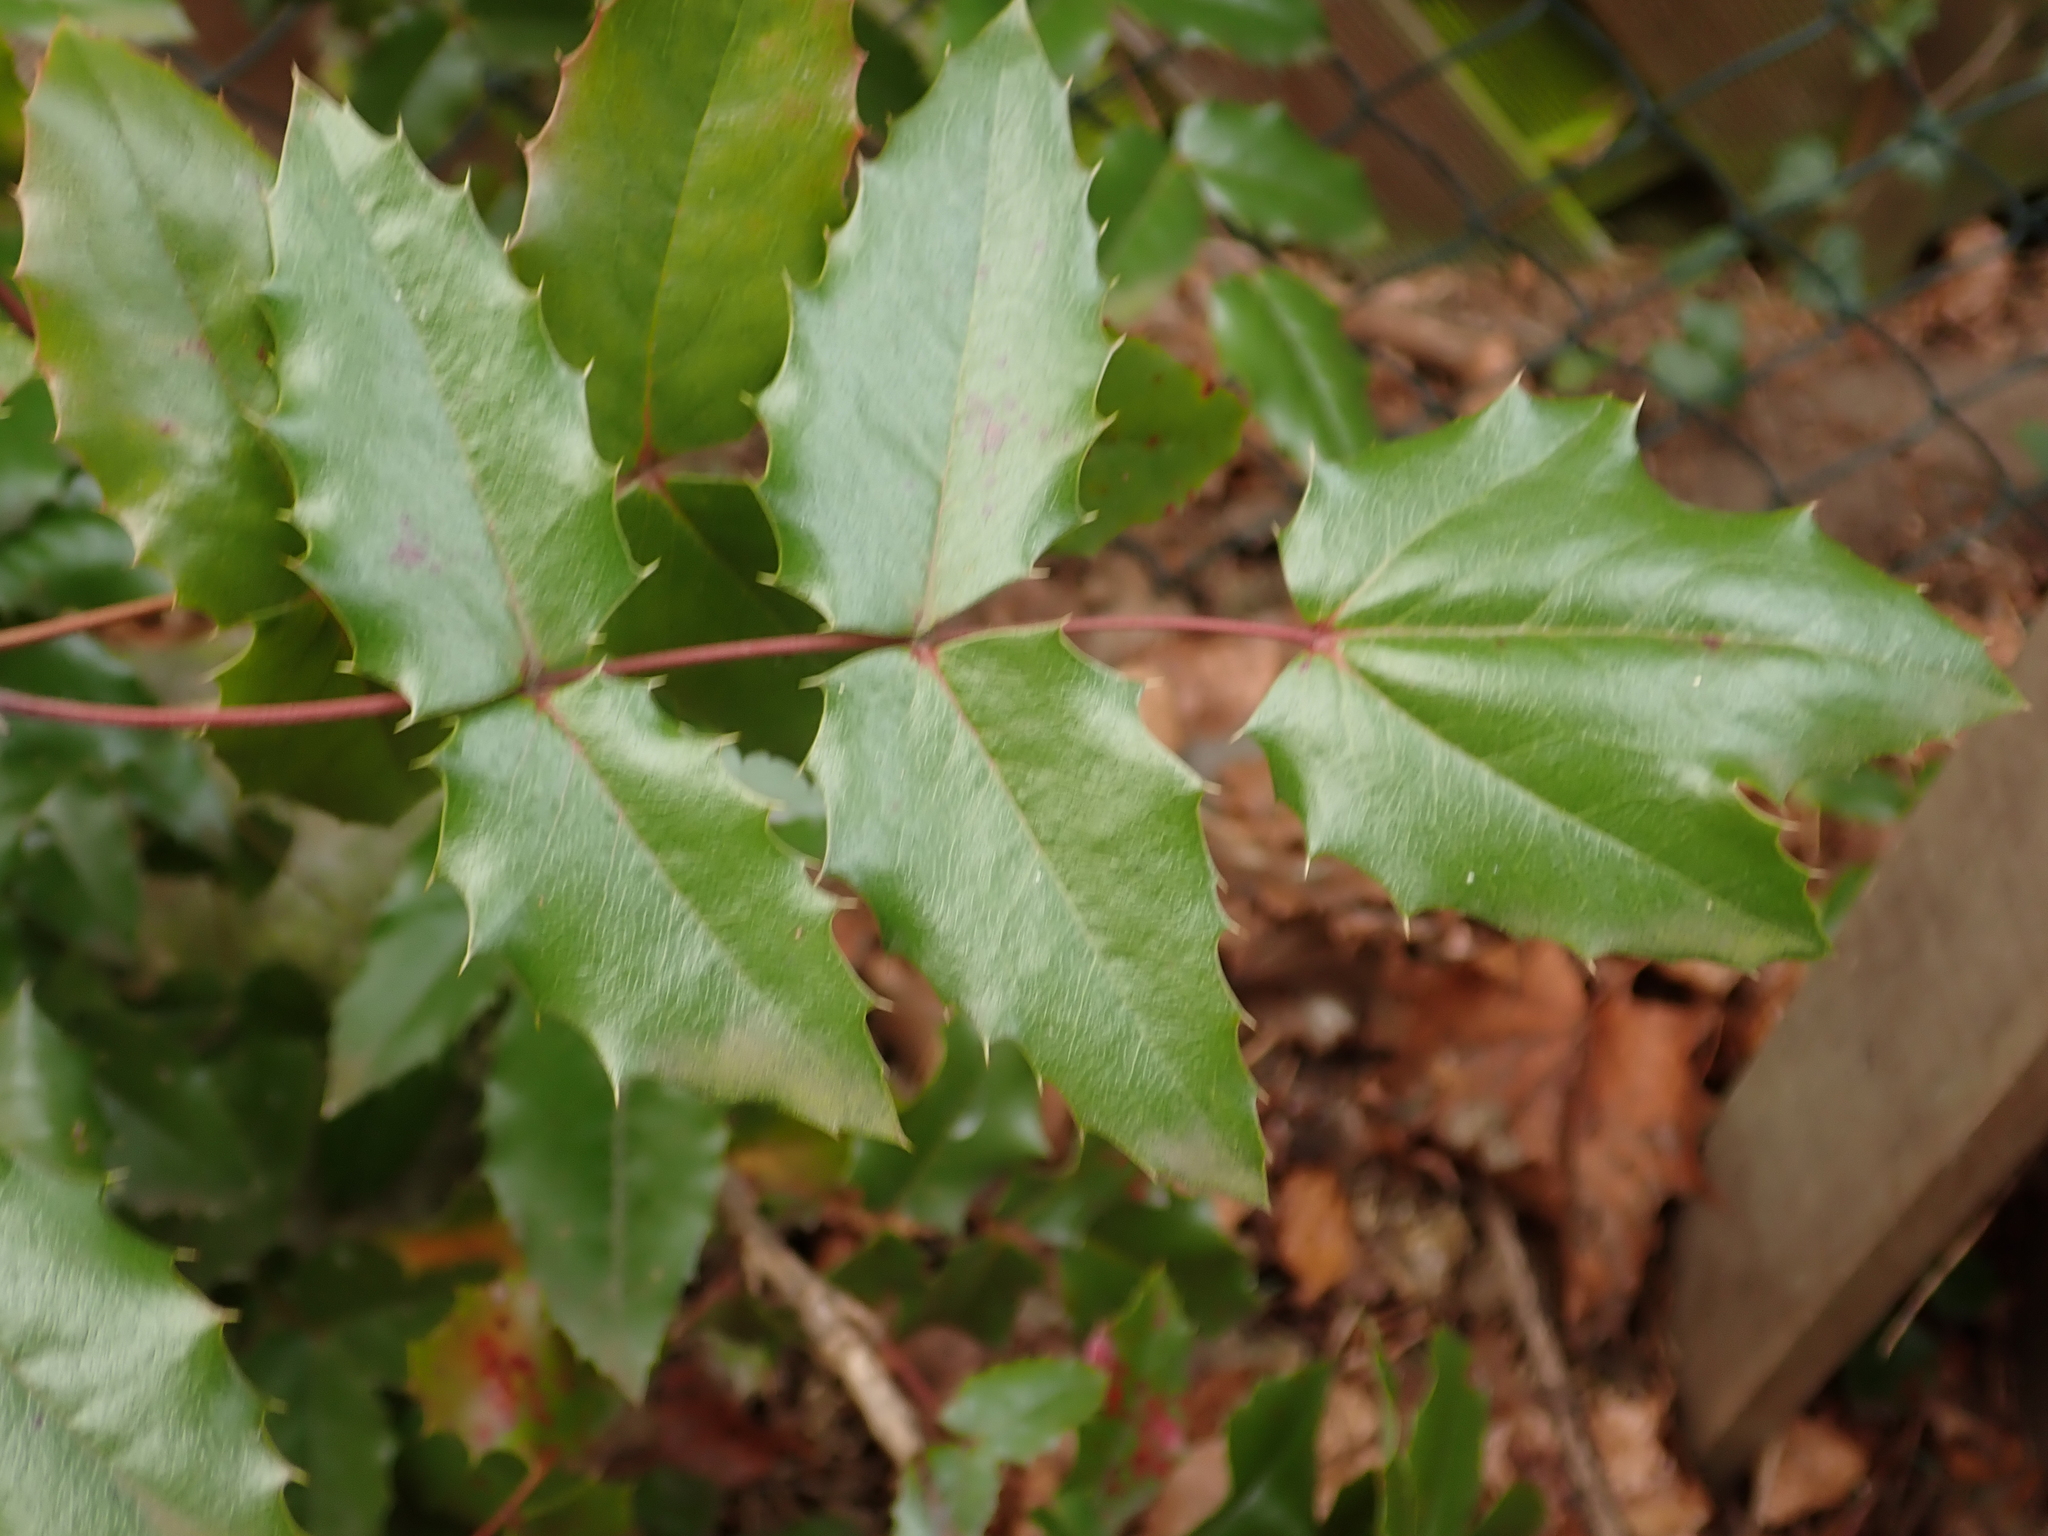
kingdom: Plantae
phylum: Tracheophyta
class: Magnoliopsida
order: Ranunculales
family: Berberidaceae
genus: Mahonia
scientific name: Mahonia aquifolium
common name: Oregon-grape
